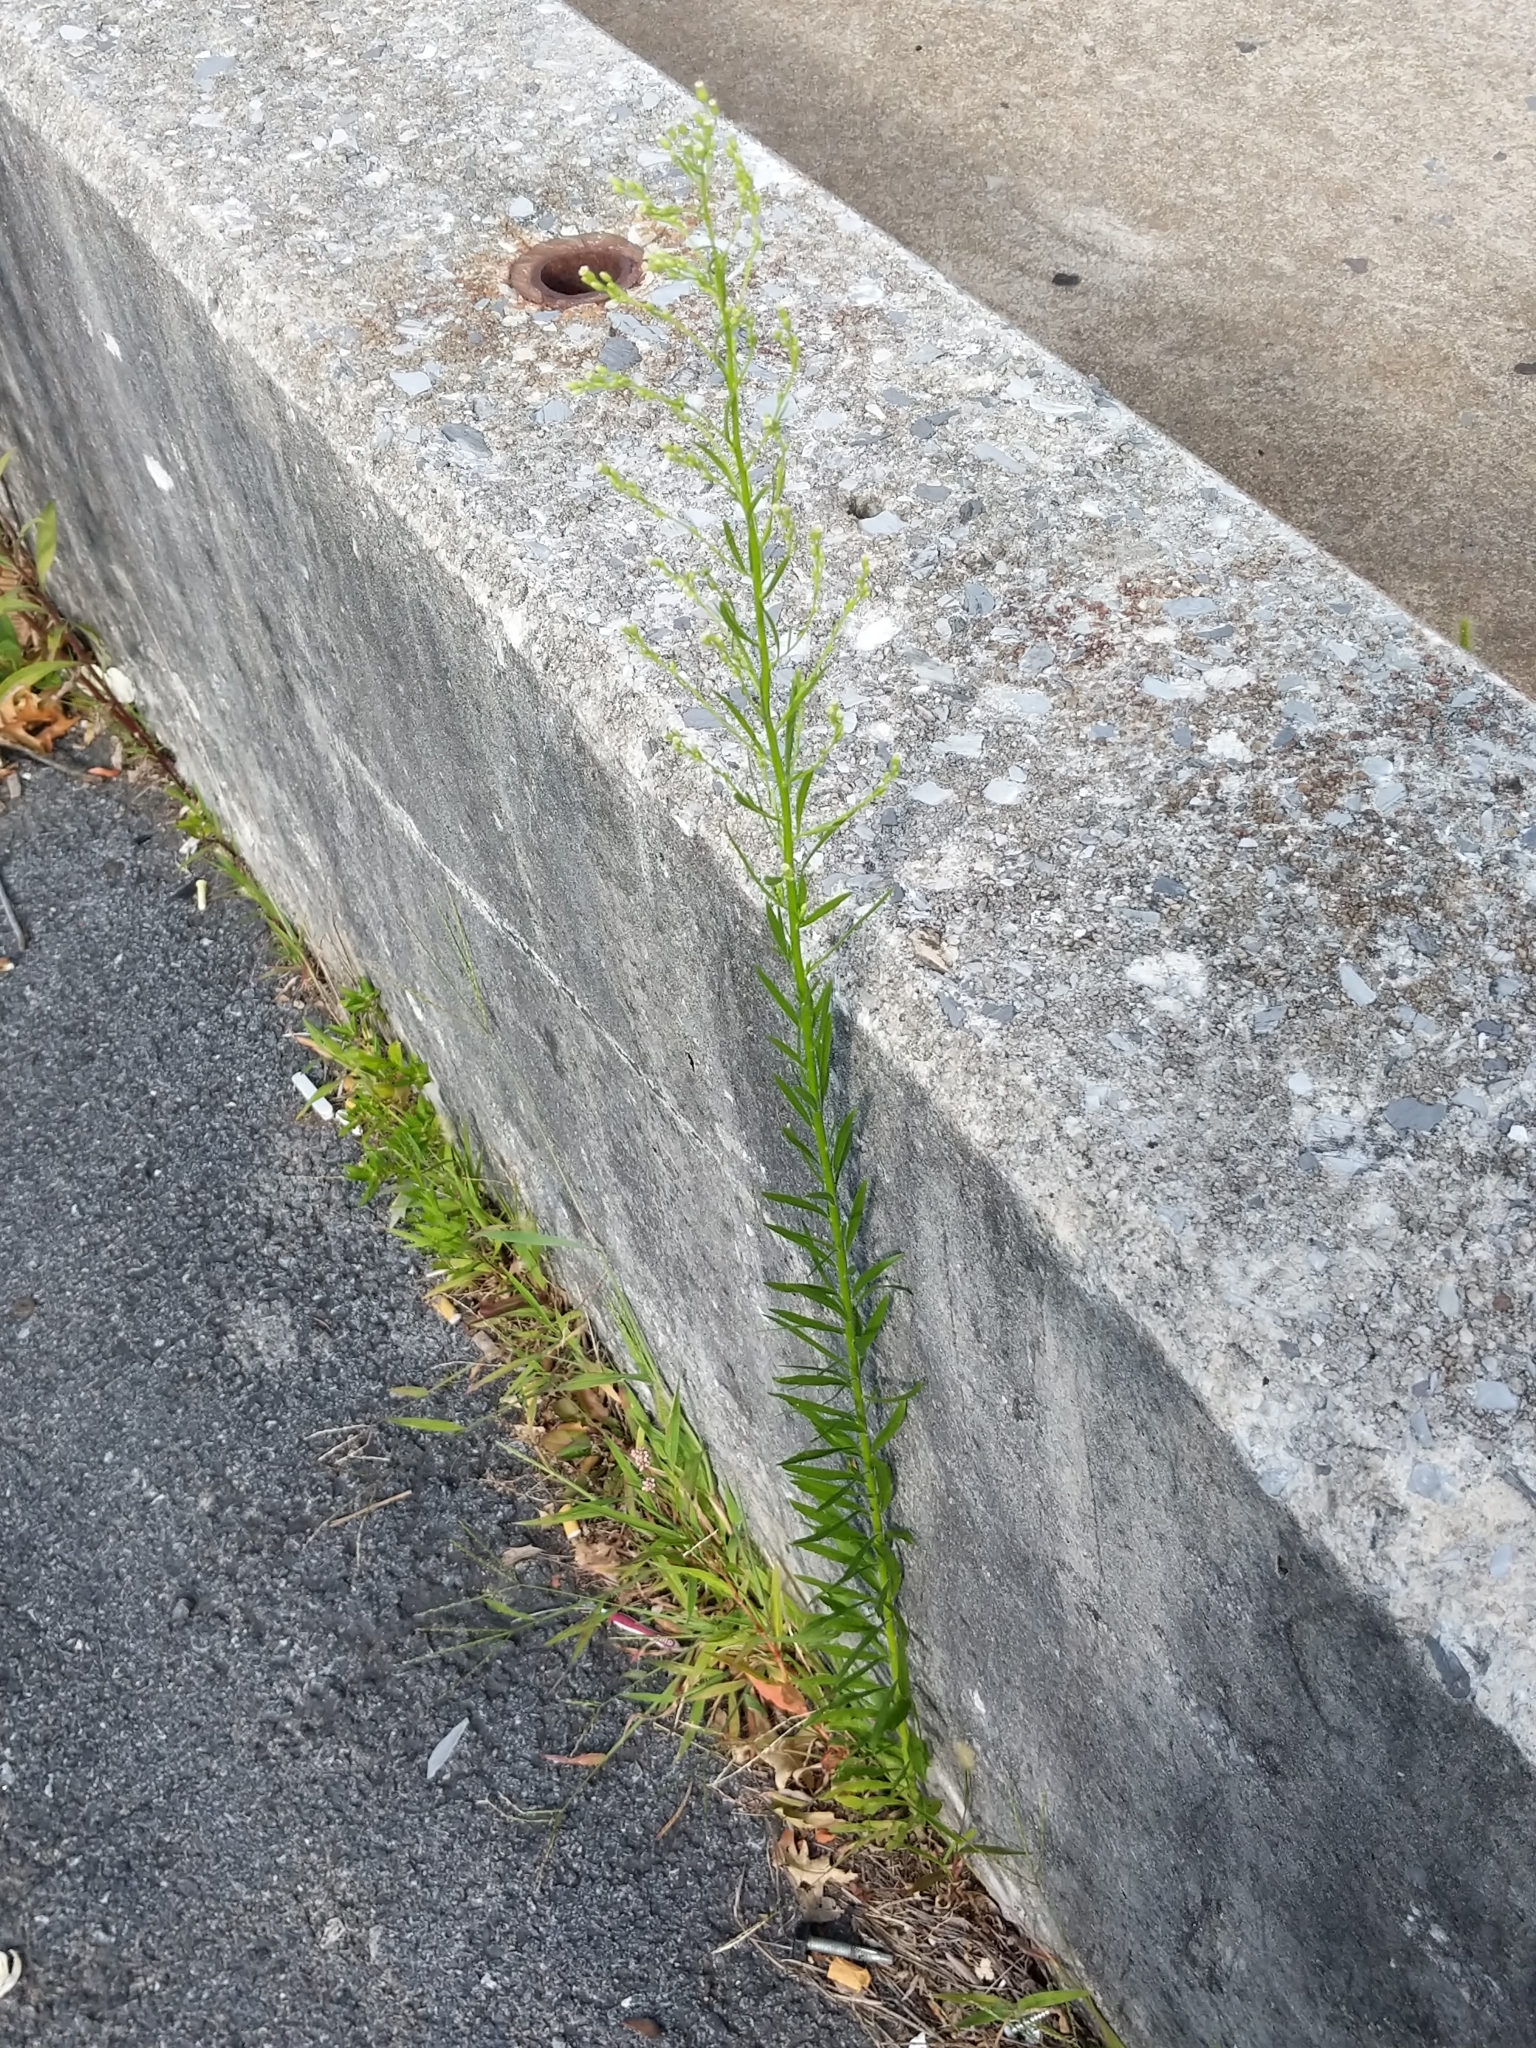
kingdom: Plantae
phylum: Tracheophyta
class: Magnoliopsida
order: Asterales
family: Asteraceae
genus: Erigeron
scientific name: Erigeron canadensis
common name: Canadian fleabane
